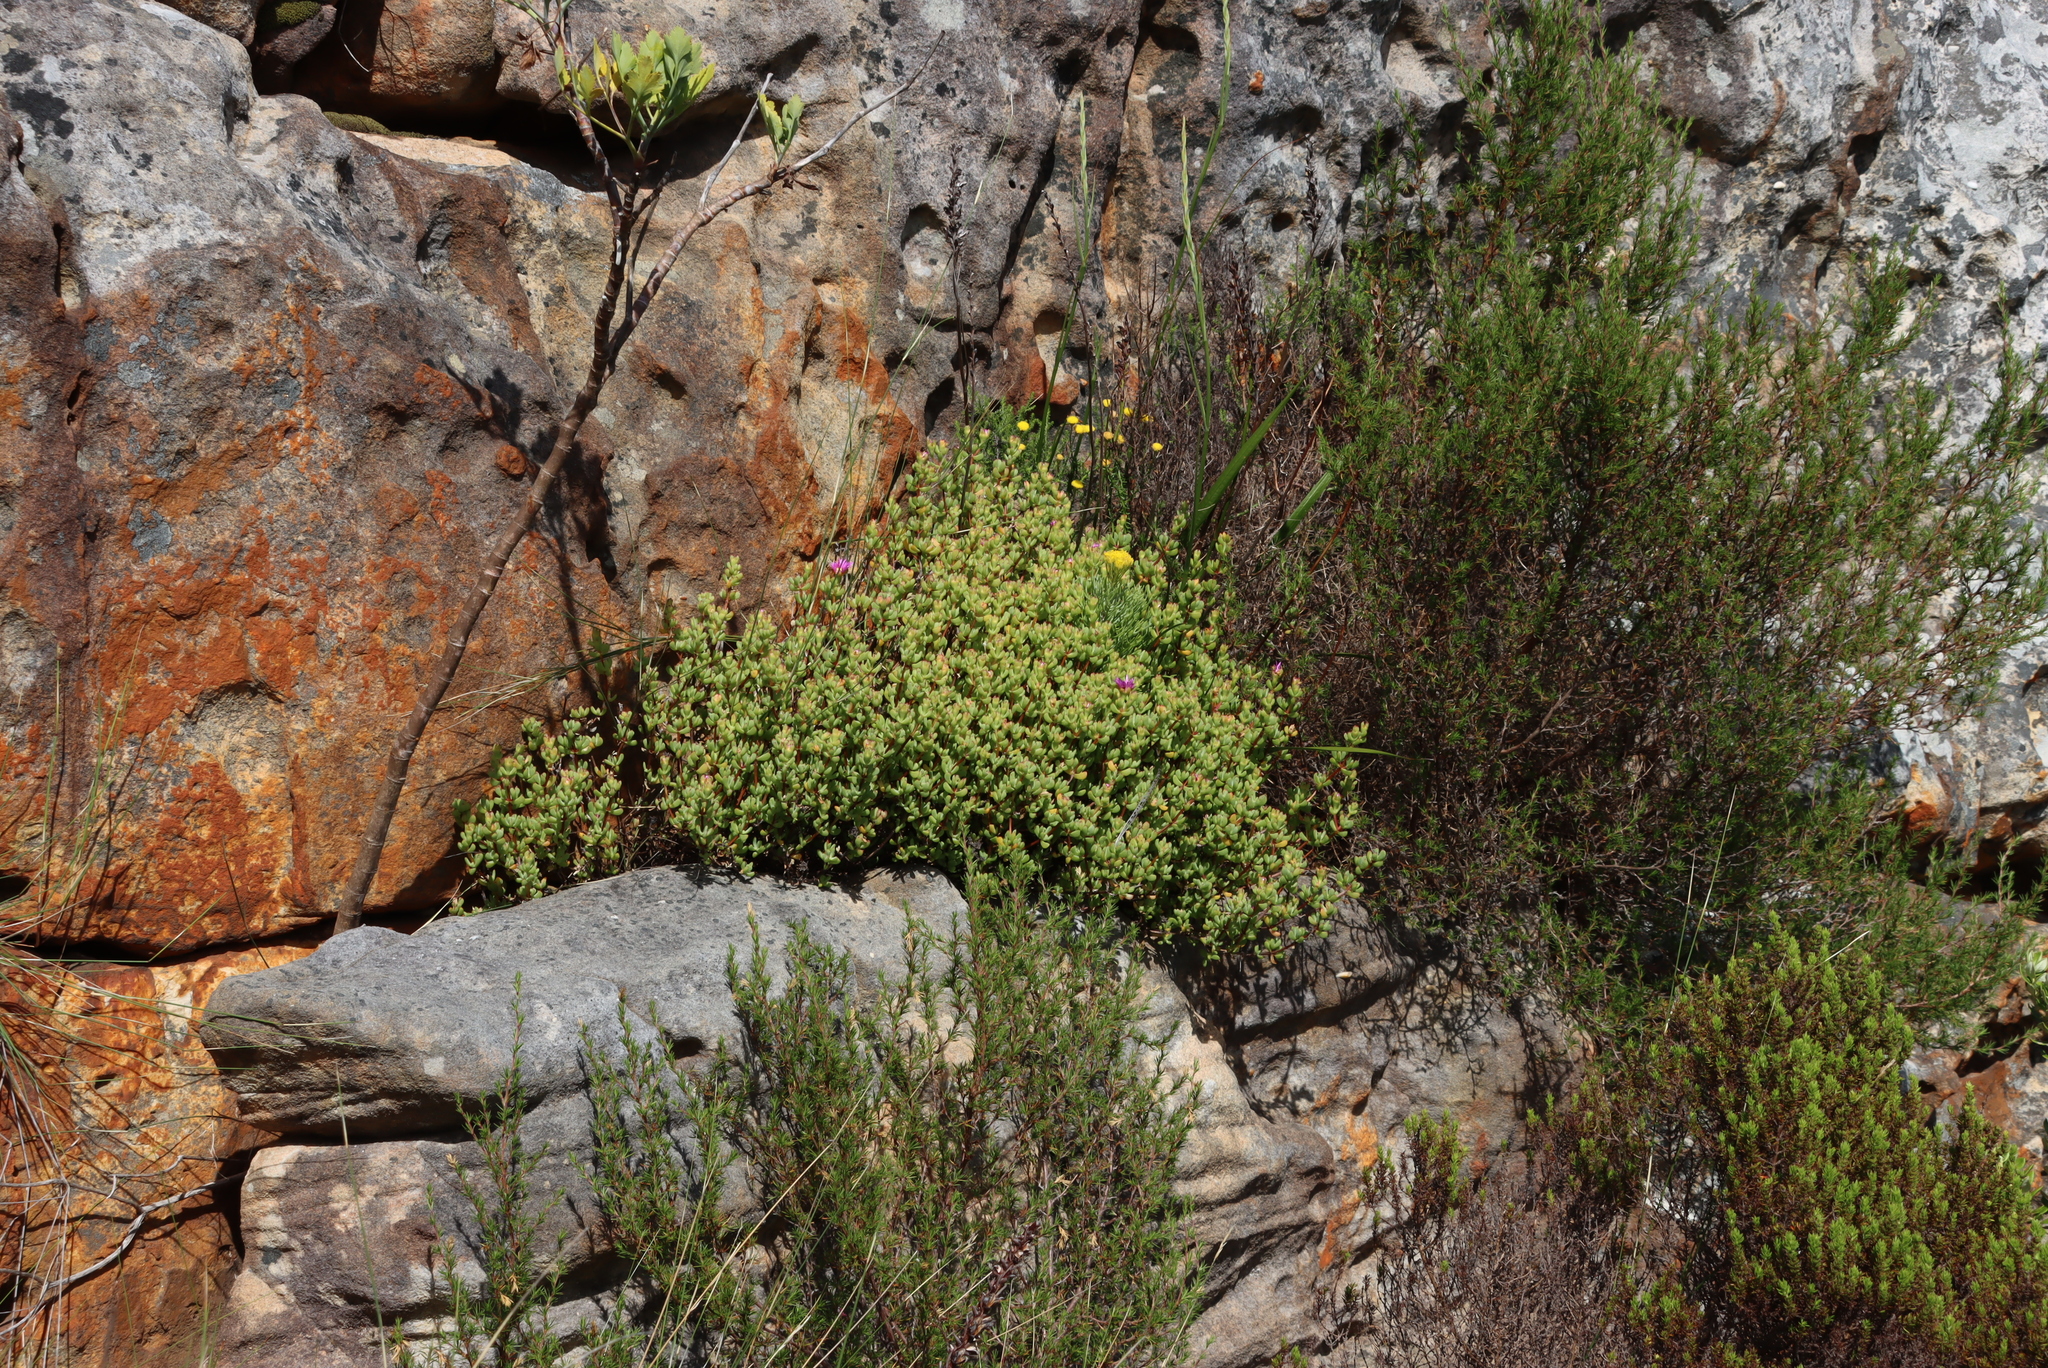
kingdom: Plantae
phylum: Tracheophyta
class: Magnoliopsida
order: Caryophyllales
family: Aizoaceae
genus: Oscularia
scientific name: Oscularia falciformis
